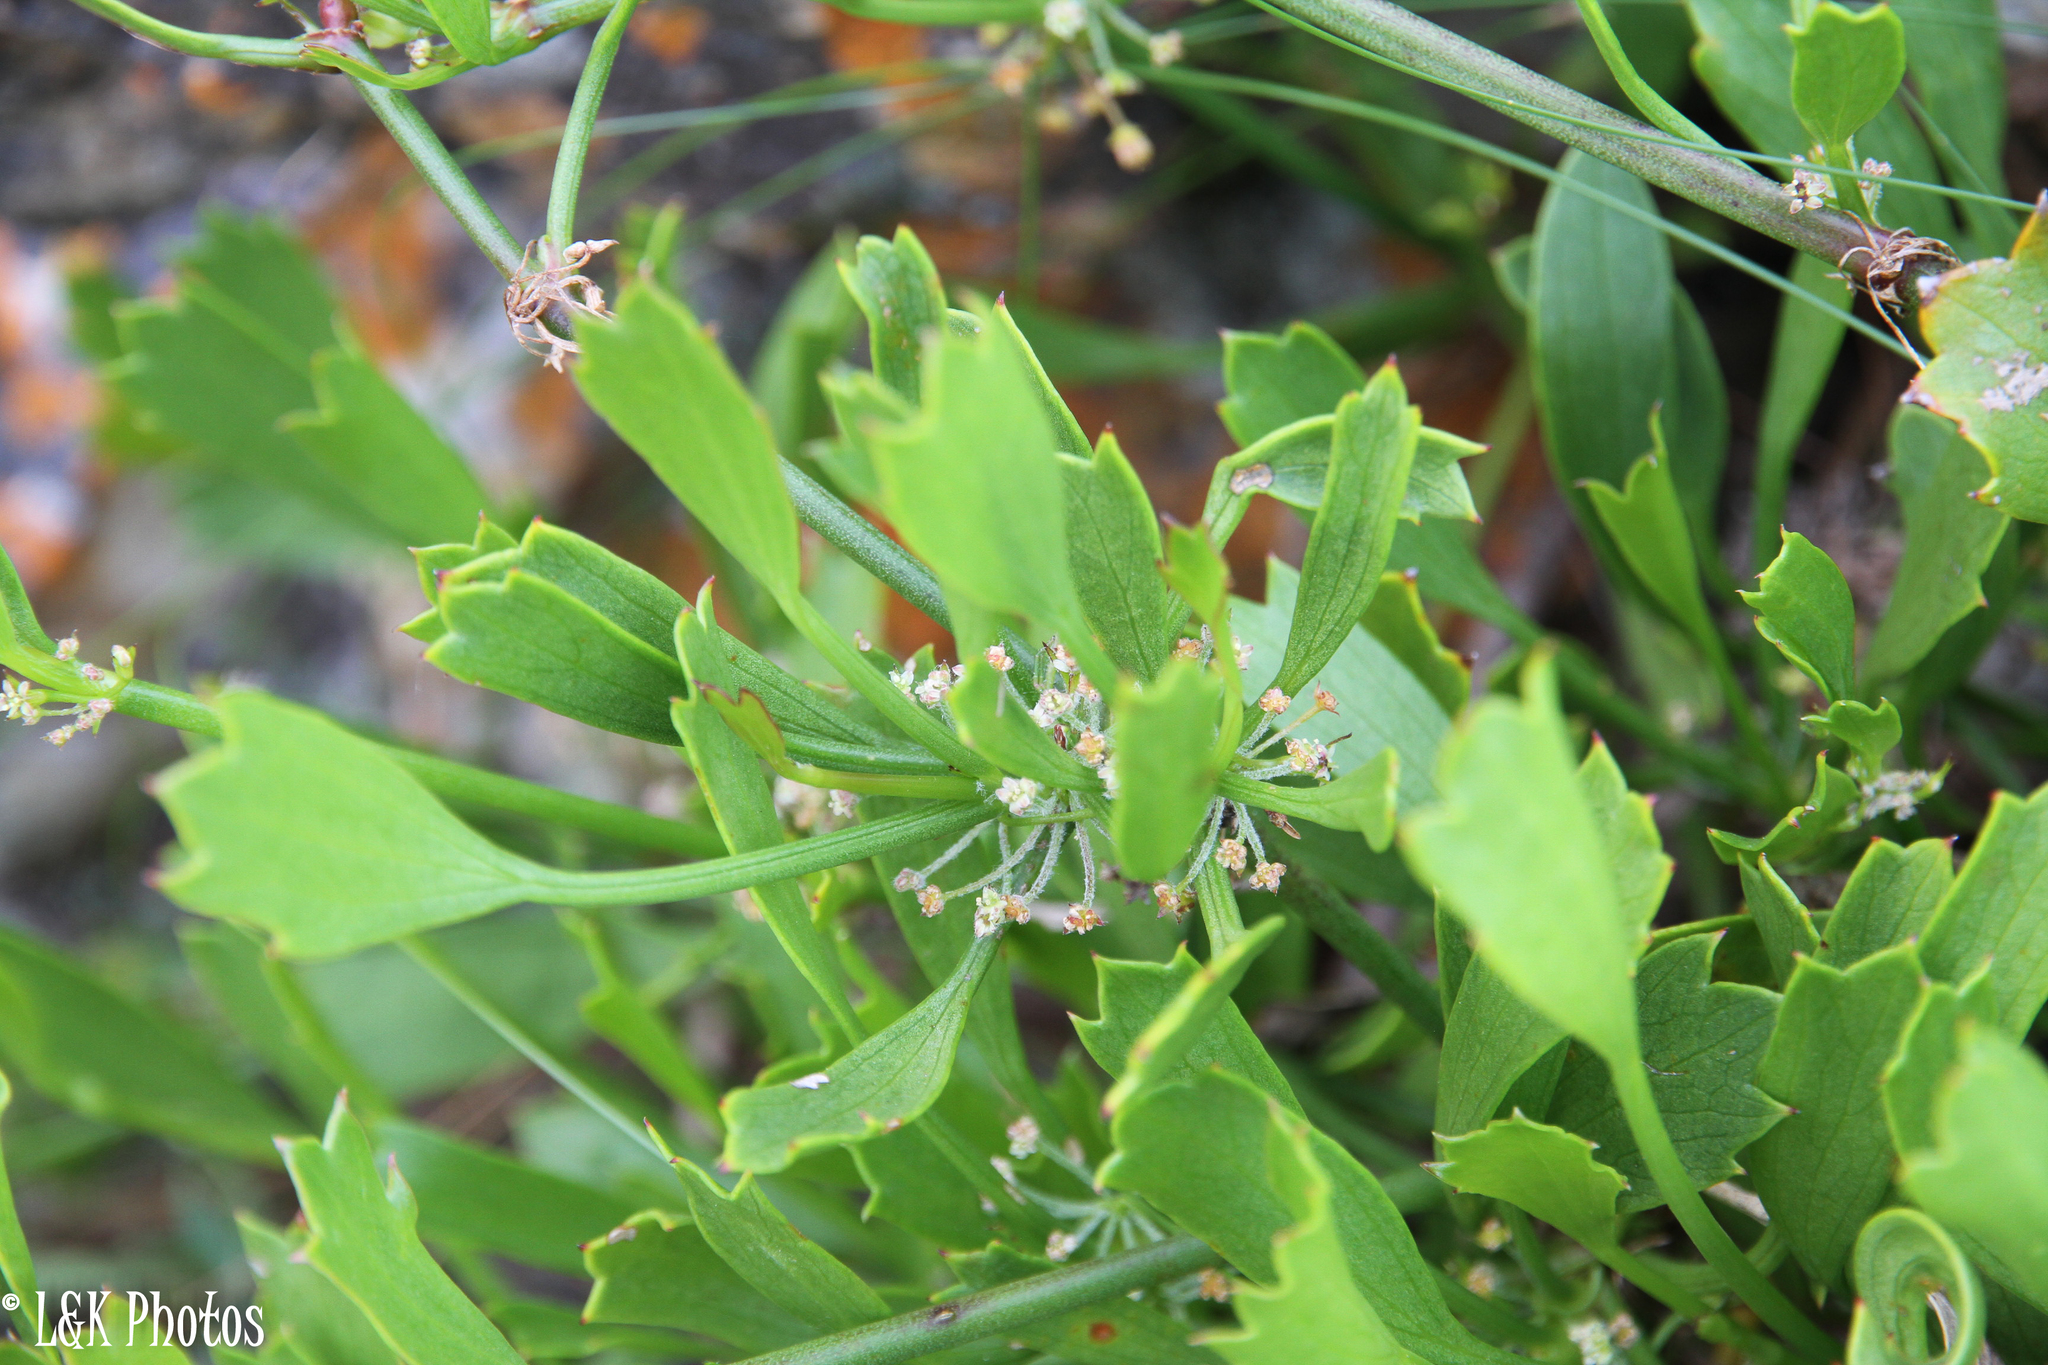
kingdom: Plantae
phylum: Tracheophyta
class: Magnoliopsida
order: Apiales
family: Apiaceae
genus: Centella
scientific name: Centella triloba
